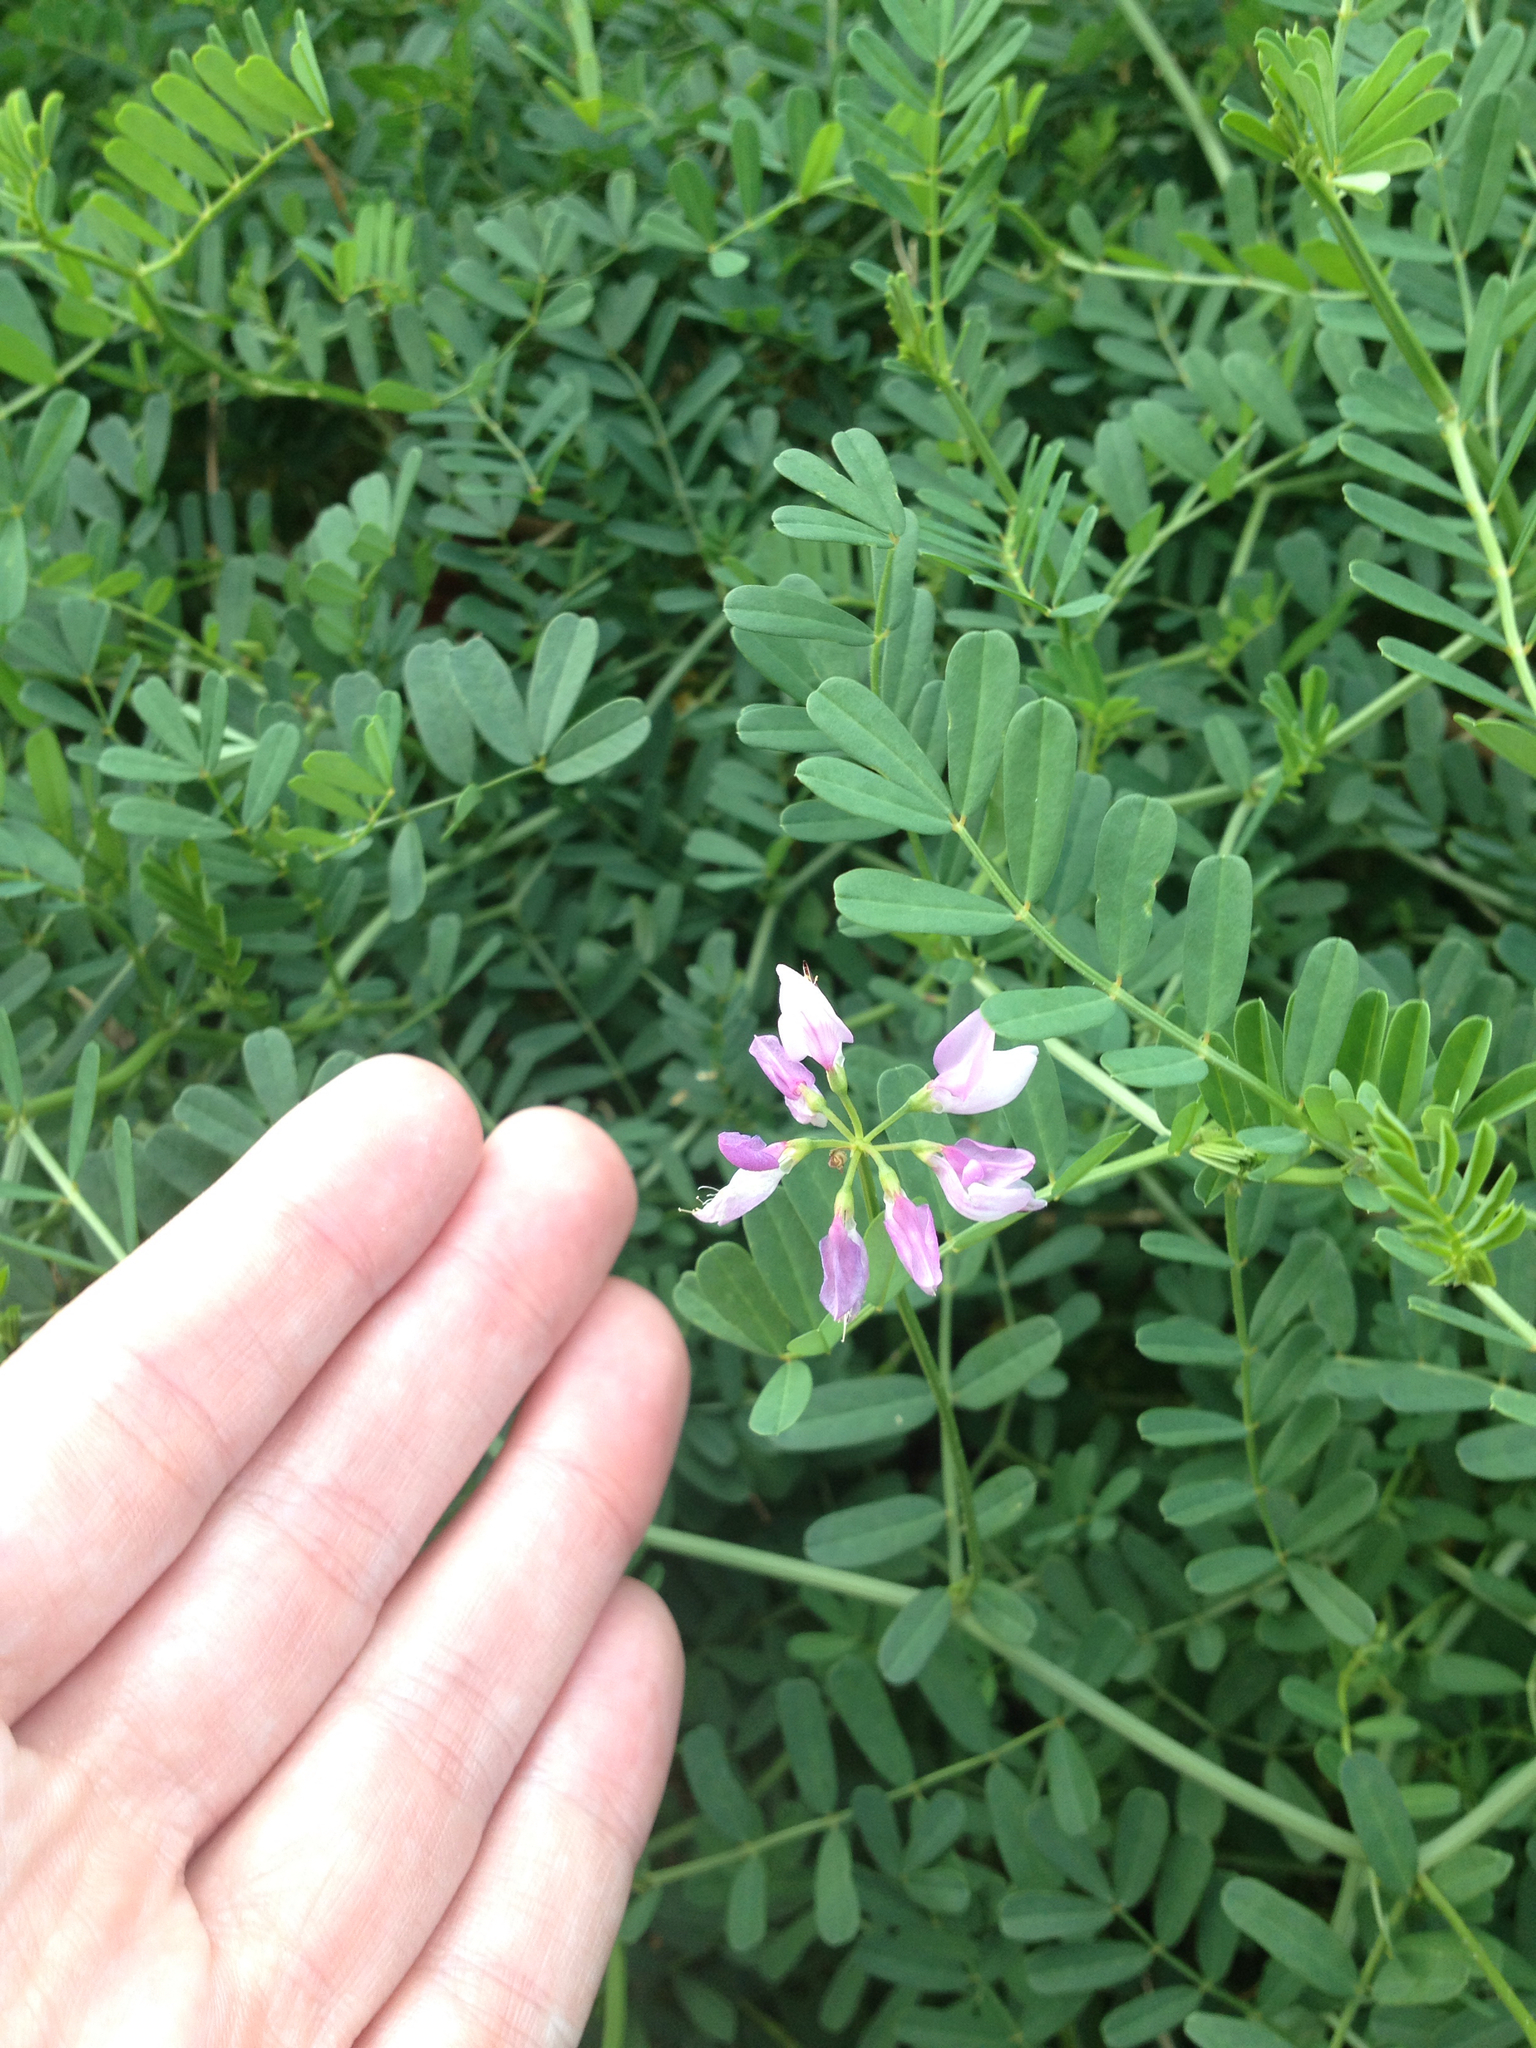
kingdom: Plantae
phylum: Tracheophyta
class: Magnoliopsida
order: Fabales
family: Fabaceae
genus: Coronilla
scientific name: Coronilla varia
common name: Crownvetch
